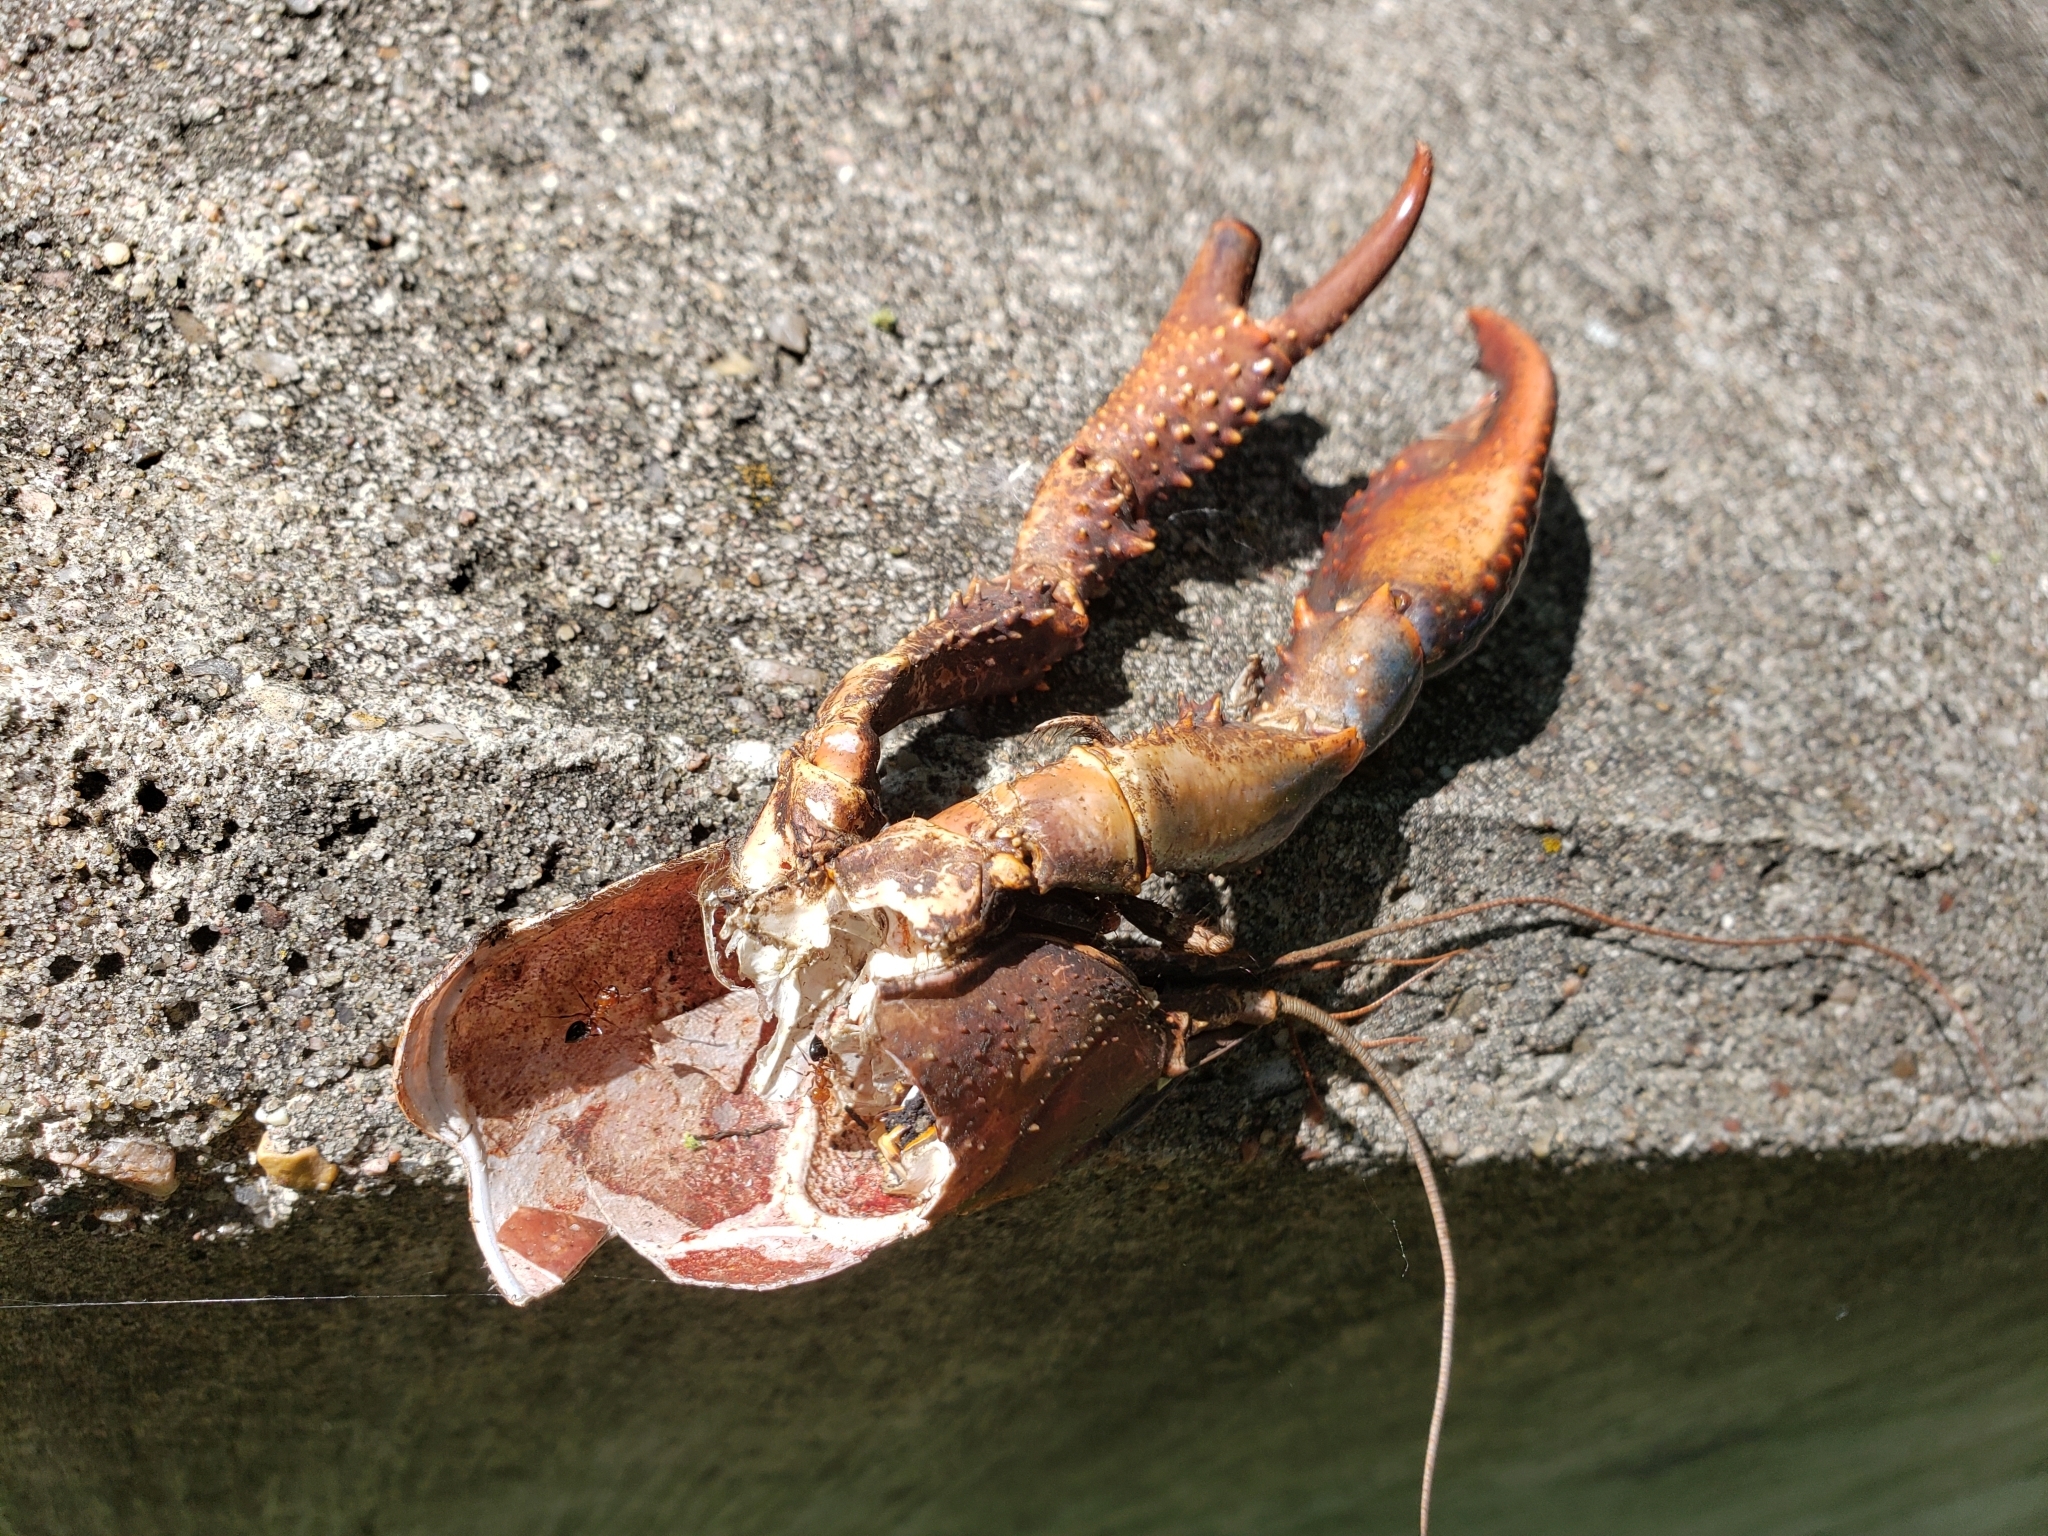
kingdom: Animalia
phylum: Arthropoda
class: Malacostraca
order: Decapoda
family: Cambaridae
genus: Procambarus
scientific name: Procambarus clarkii
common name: Red swamp crayfish
